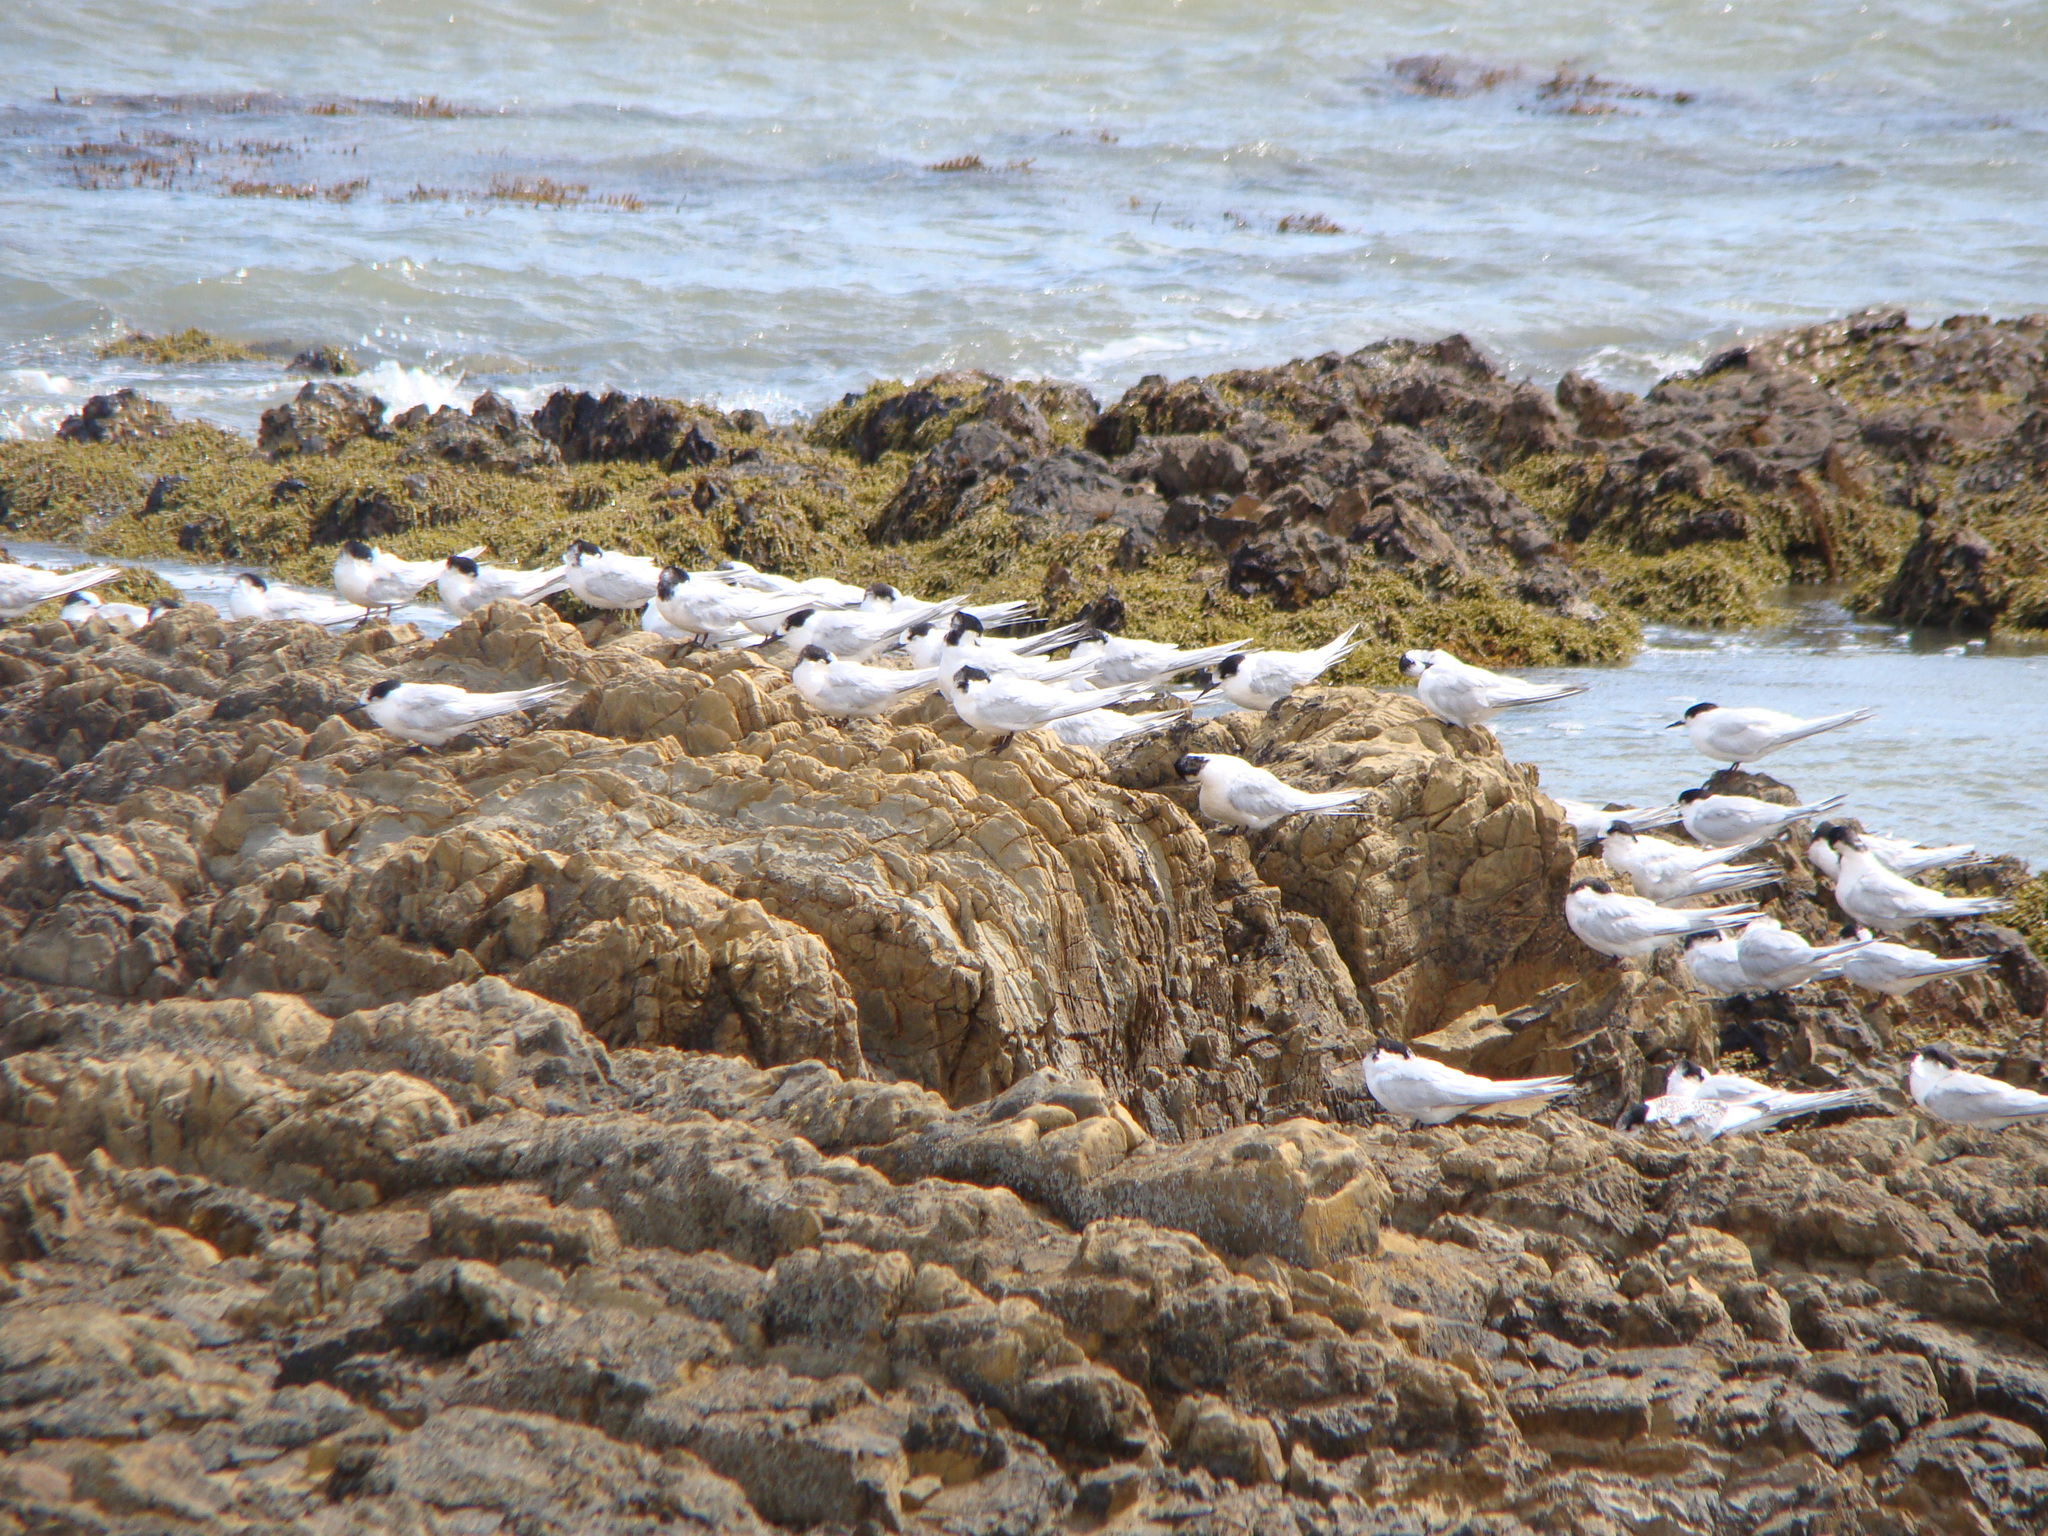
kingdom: Animalia
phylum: Chordata
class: Aves
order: Charadriiformes
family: Laridae
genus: Sterna
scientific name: Sterna striata
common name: White-fronted tern
